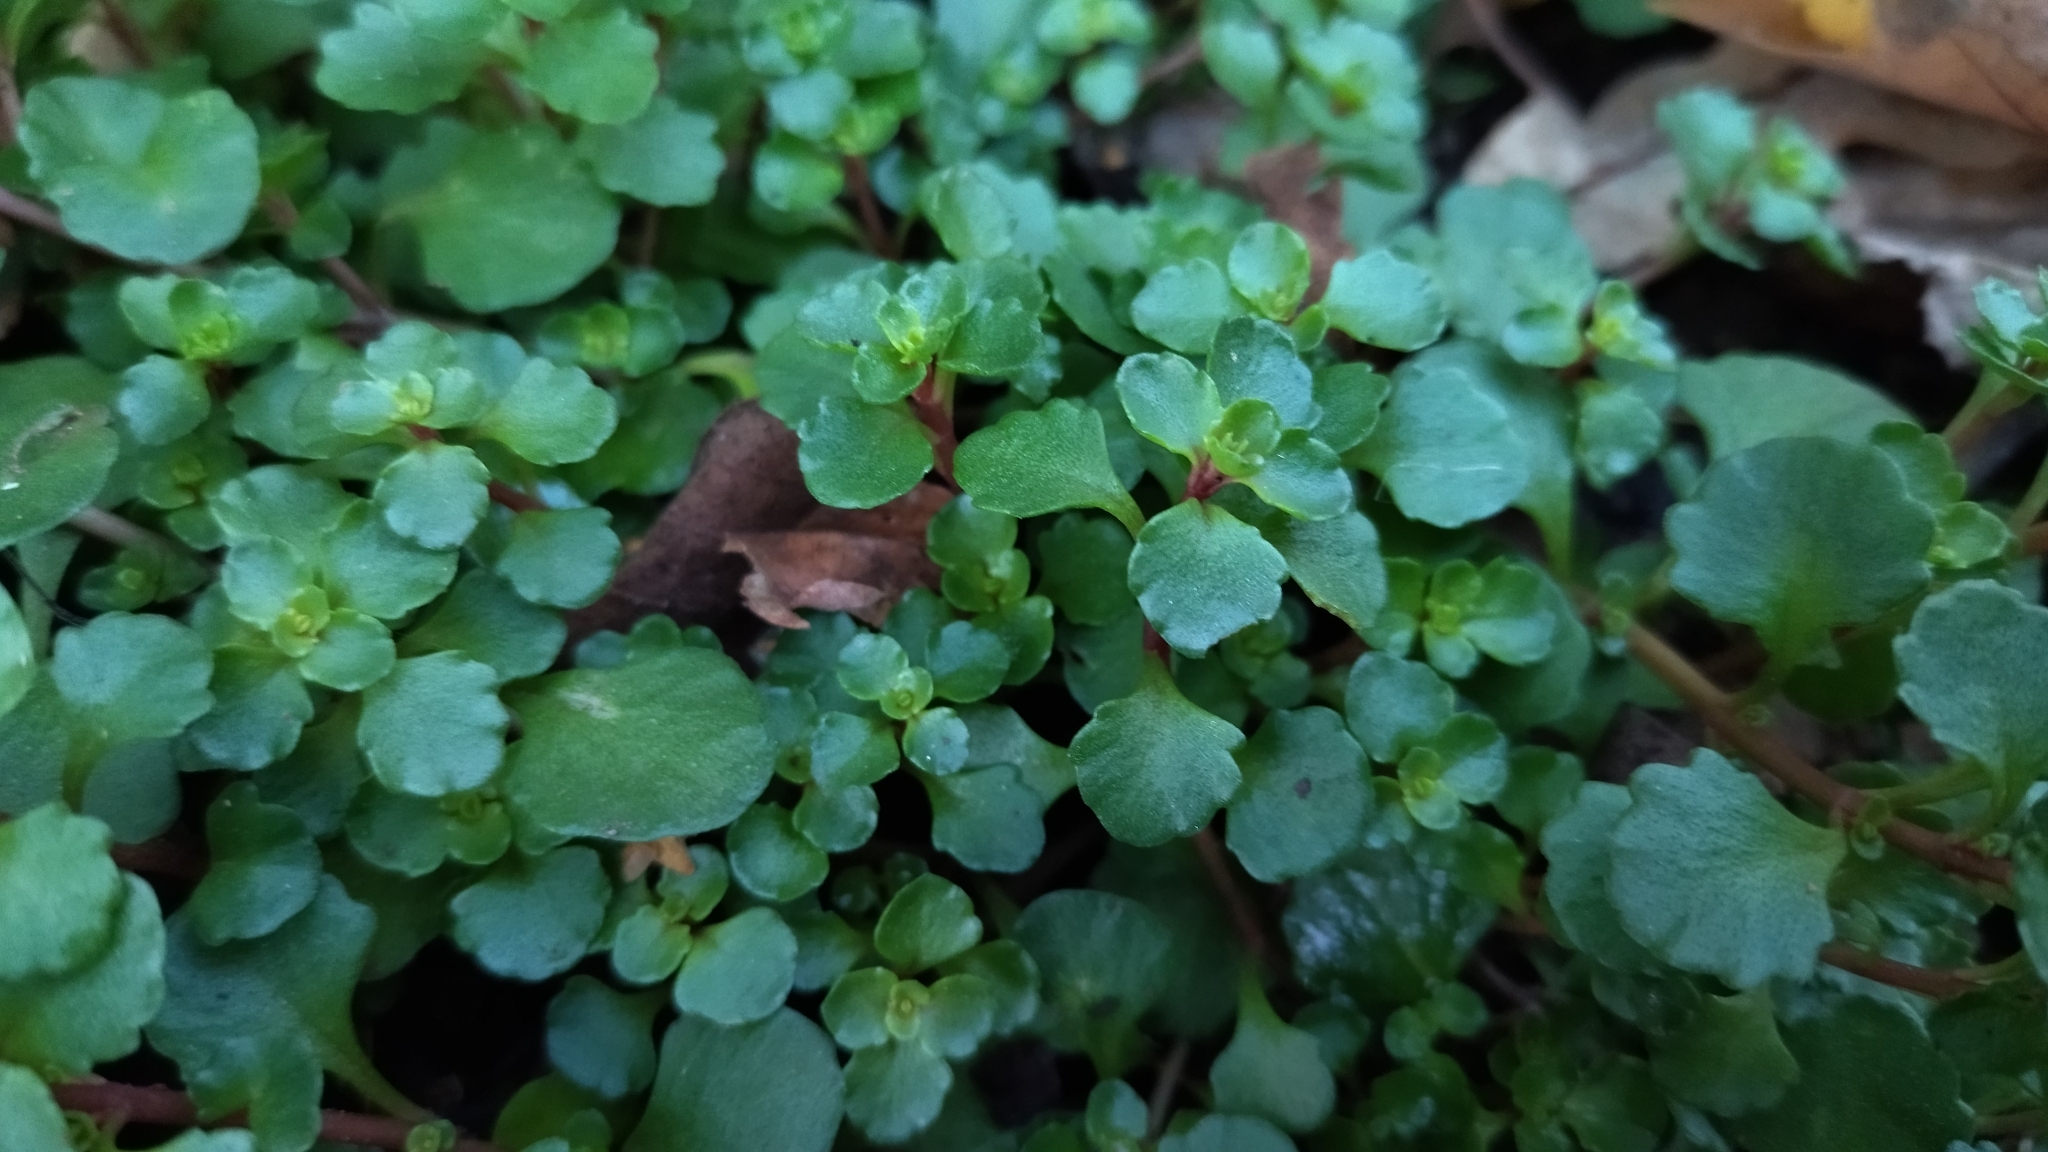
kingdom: Plantae
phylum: Tracheophyta
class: Magnoliopsida
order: Saxifragales
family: Crassulaceae
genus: Phedimus
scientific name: Phedimus stolonifer
